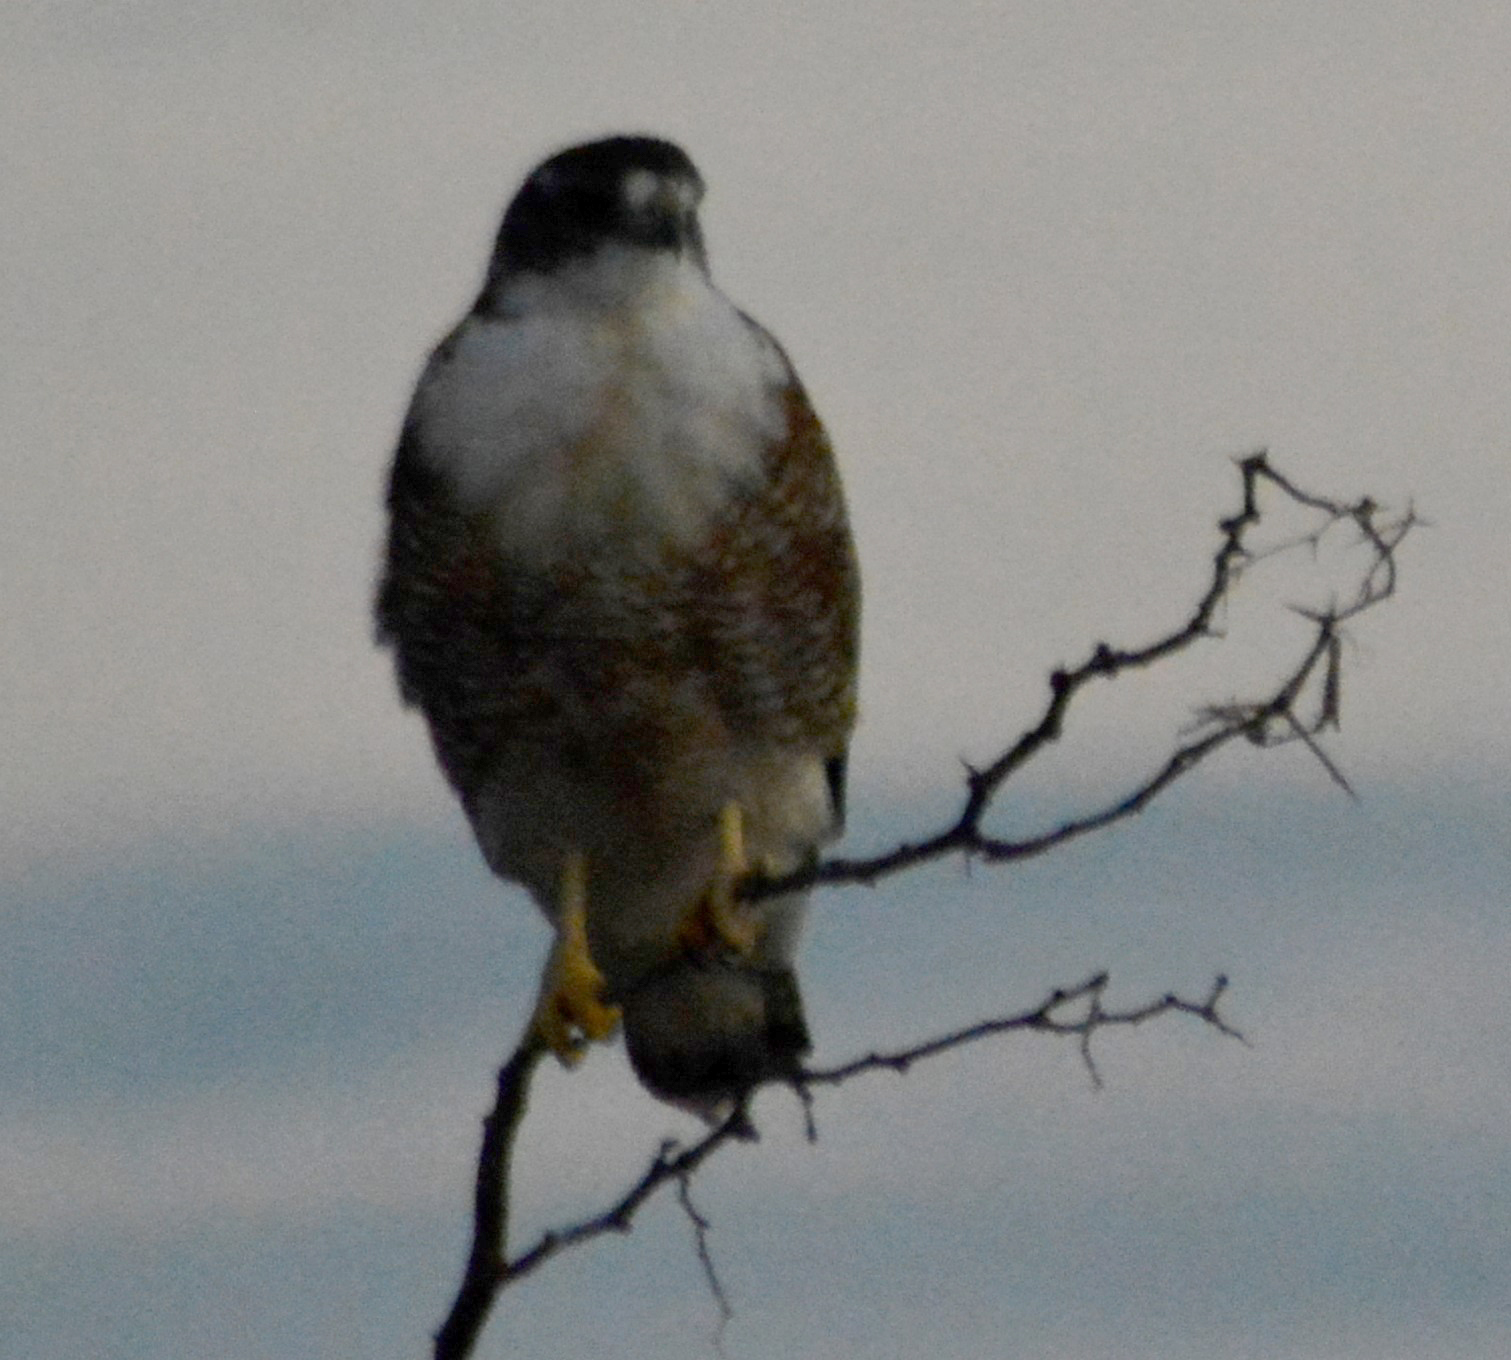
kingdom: Animalia
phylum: Chordata
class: Aves
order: Accipitriformes
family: Accipitridae
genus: Buteo
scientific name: Buteo polyosoma
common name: Variable hawk
